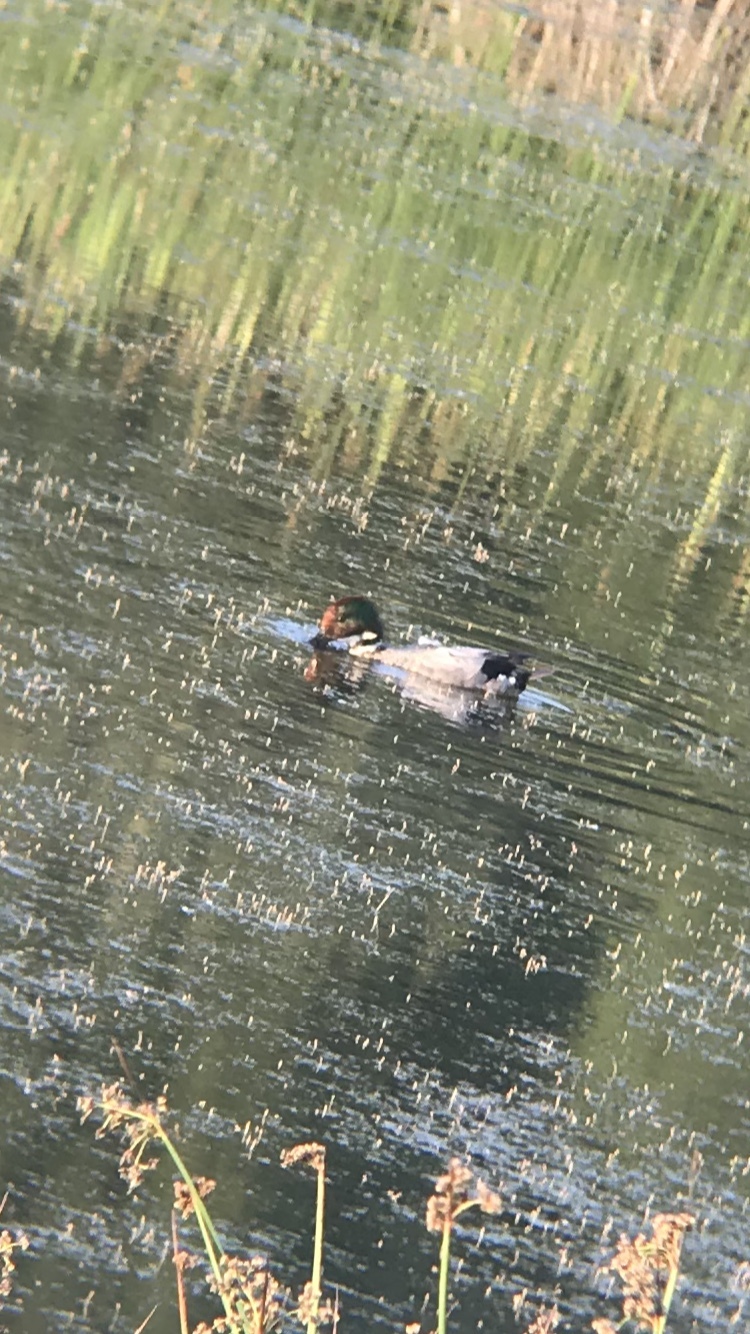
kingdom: Animalia
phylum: Chordata
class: Aves
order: Anseriformes
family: Anatidae
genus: Mareca
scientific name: Mareca falcata
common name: Falcated duck
